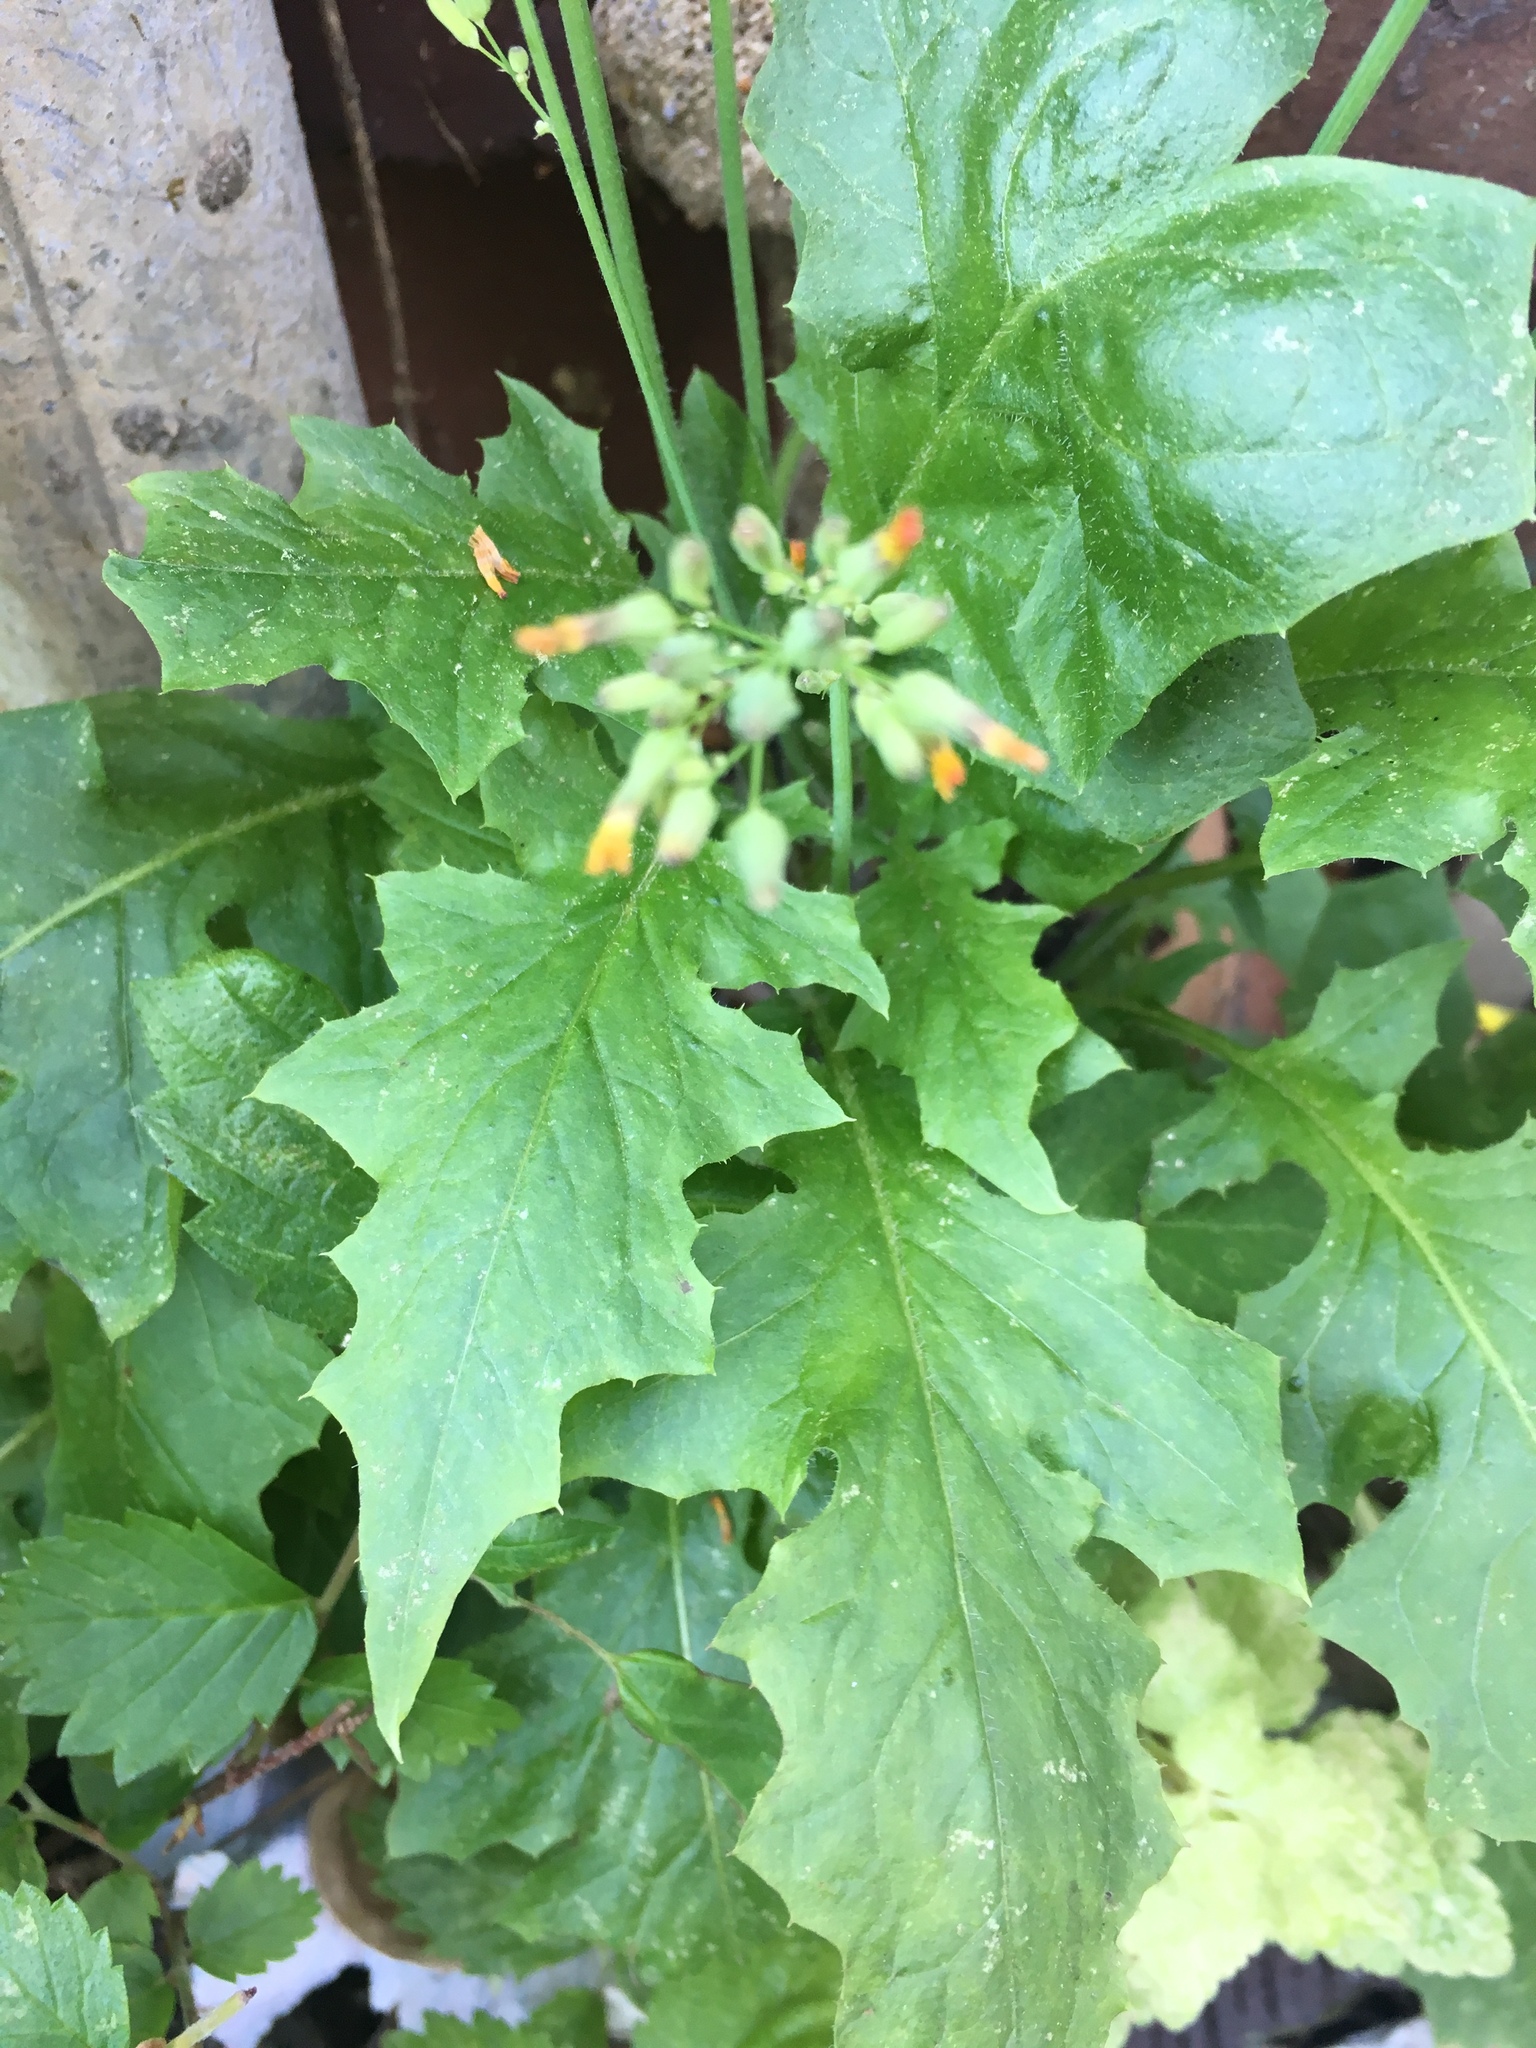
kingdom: Plantae
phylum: Tracheophyta
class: Magnoliopsida
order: Asterales
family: Asteraceae
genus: Erechtites
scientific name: Erechtites hieraciifolius
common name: American burnweed
